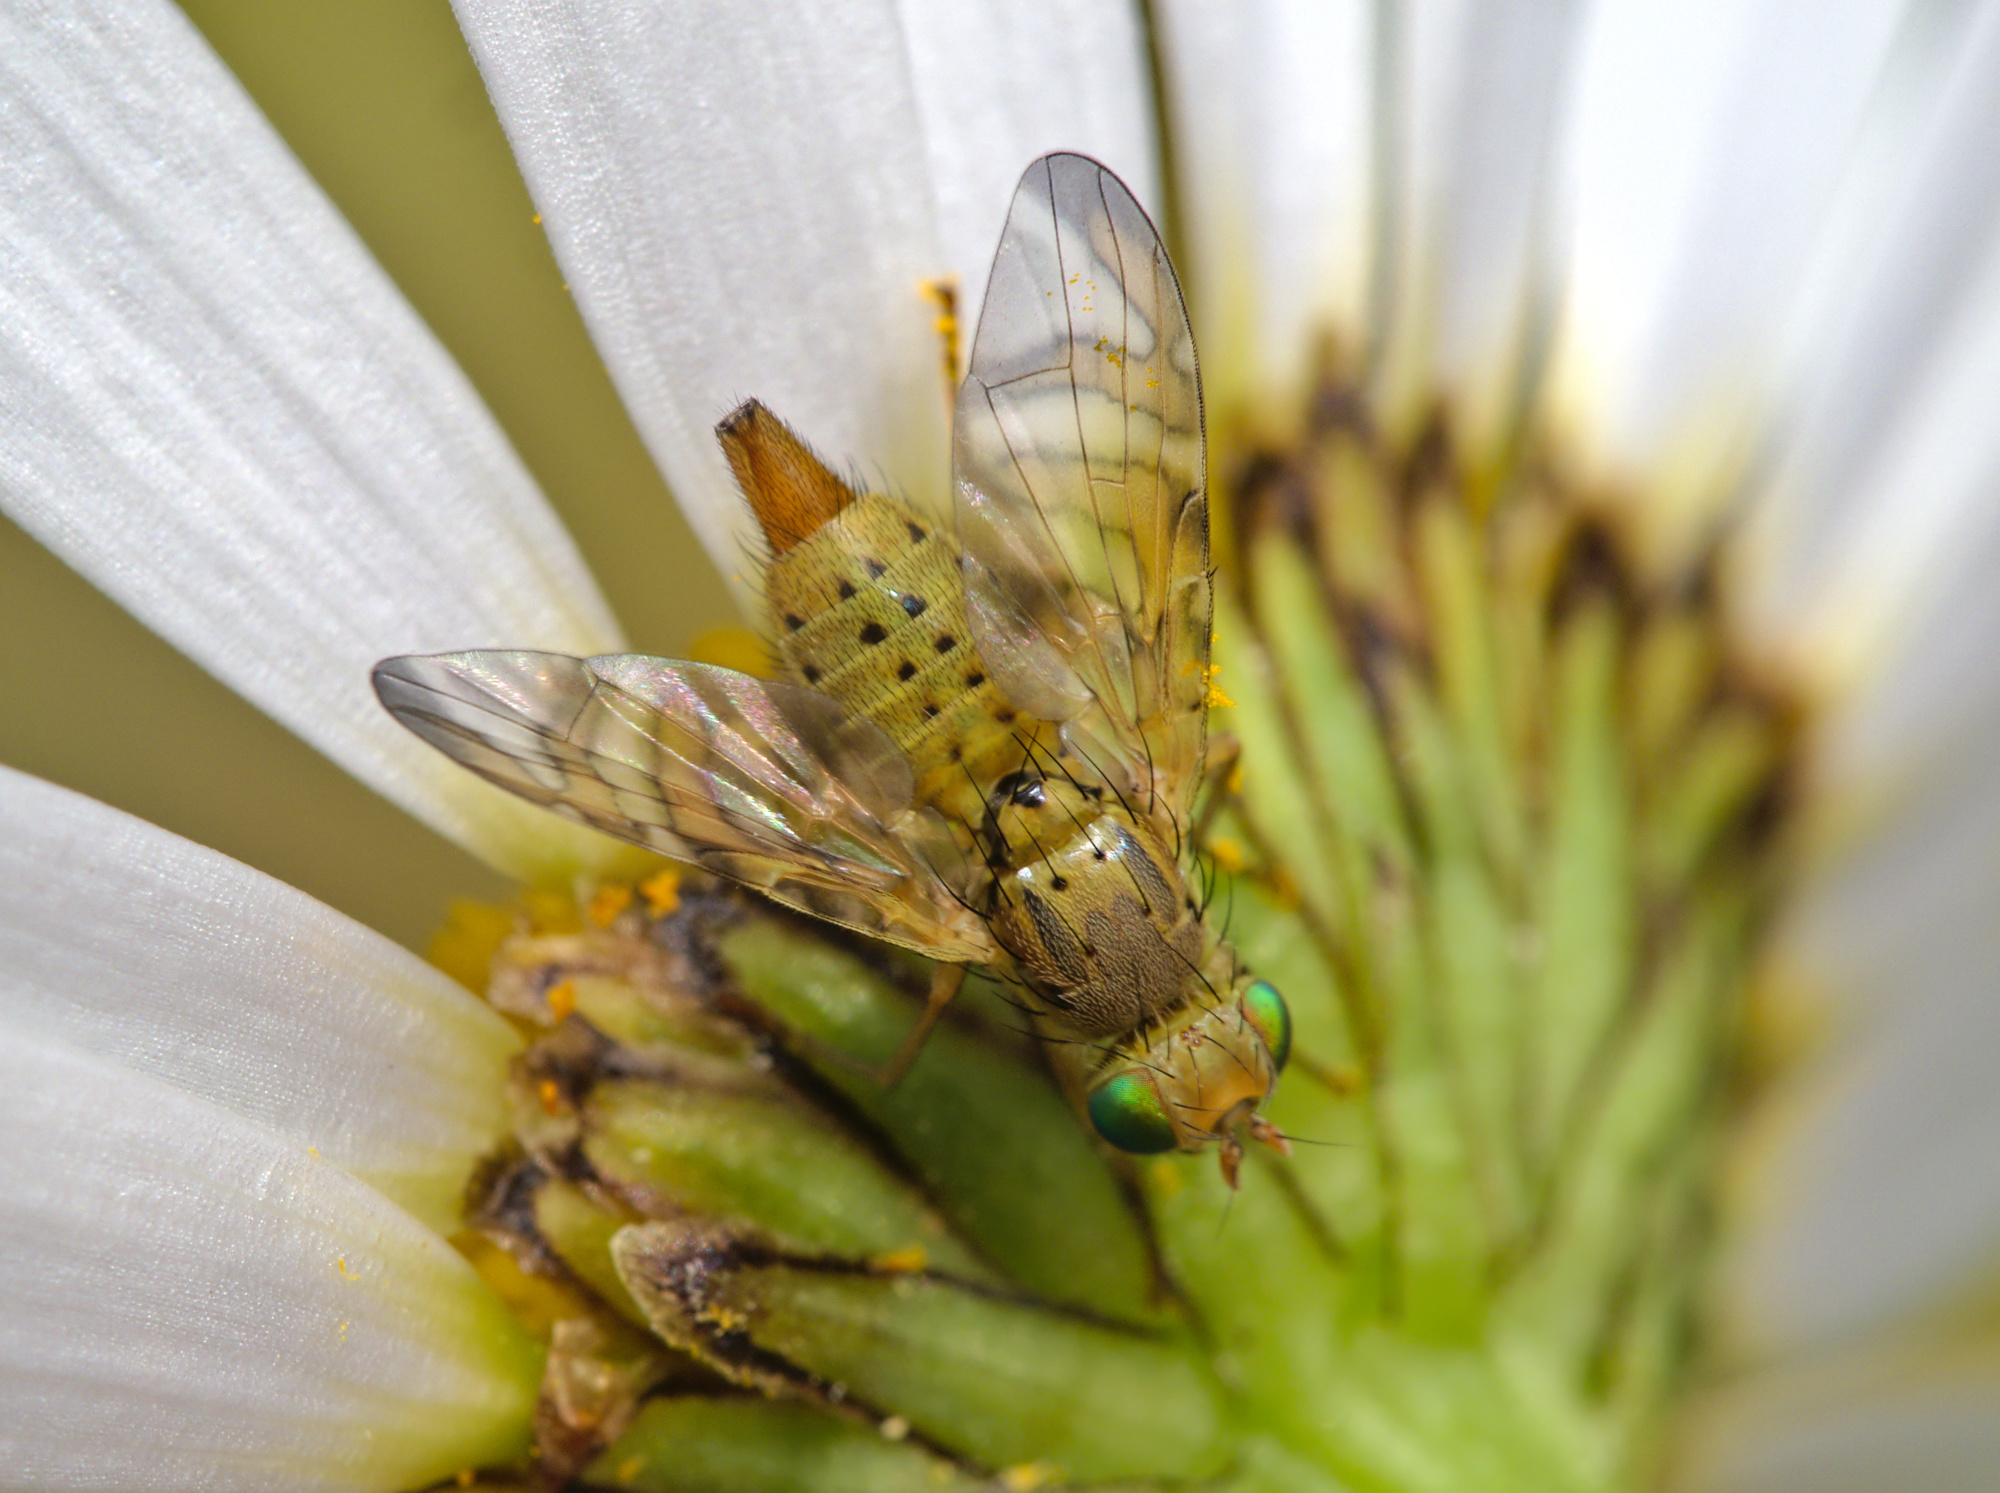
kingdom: Animalia
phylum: Arthropoda
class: Insecta
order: Diptera
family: Tephritidae
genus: Chaetostomella
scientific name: Chaetostomella cylindrica
